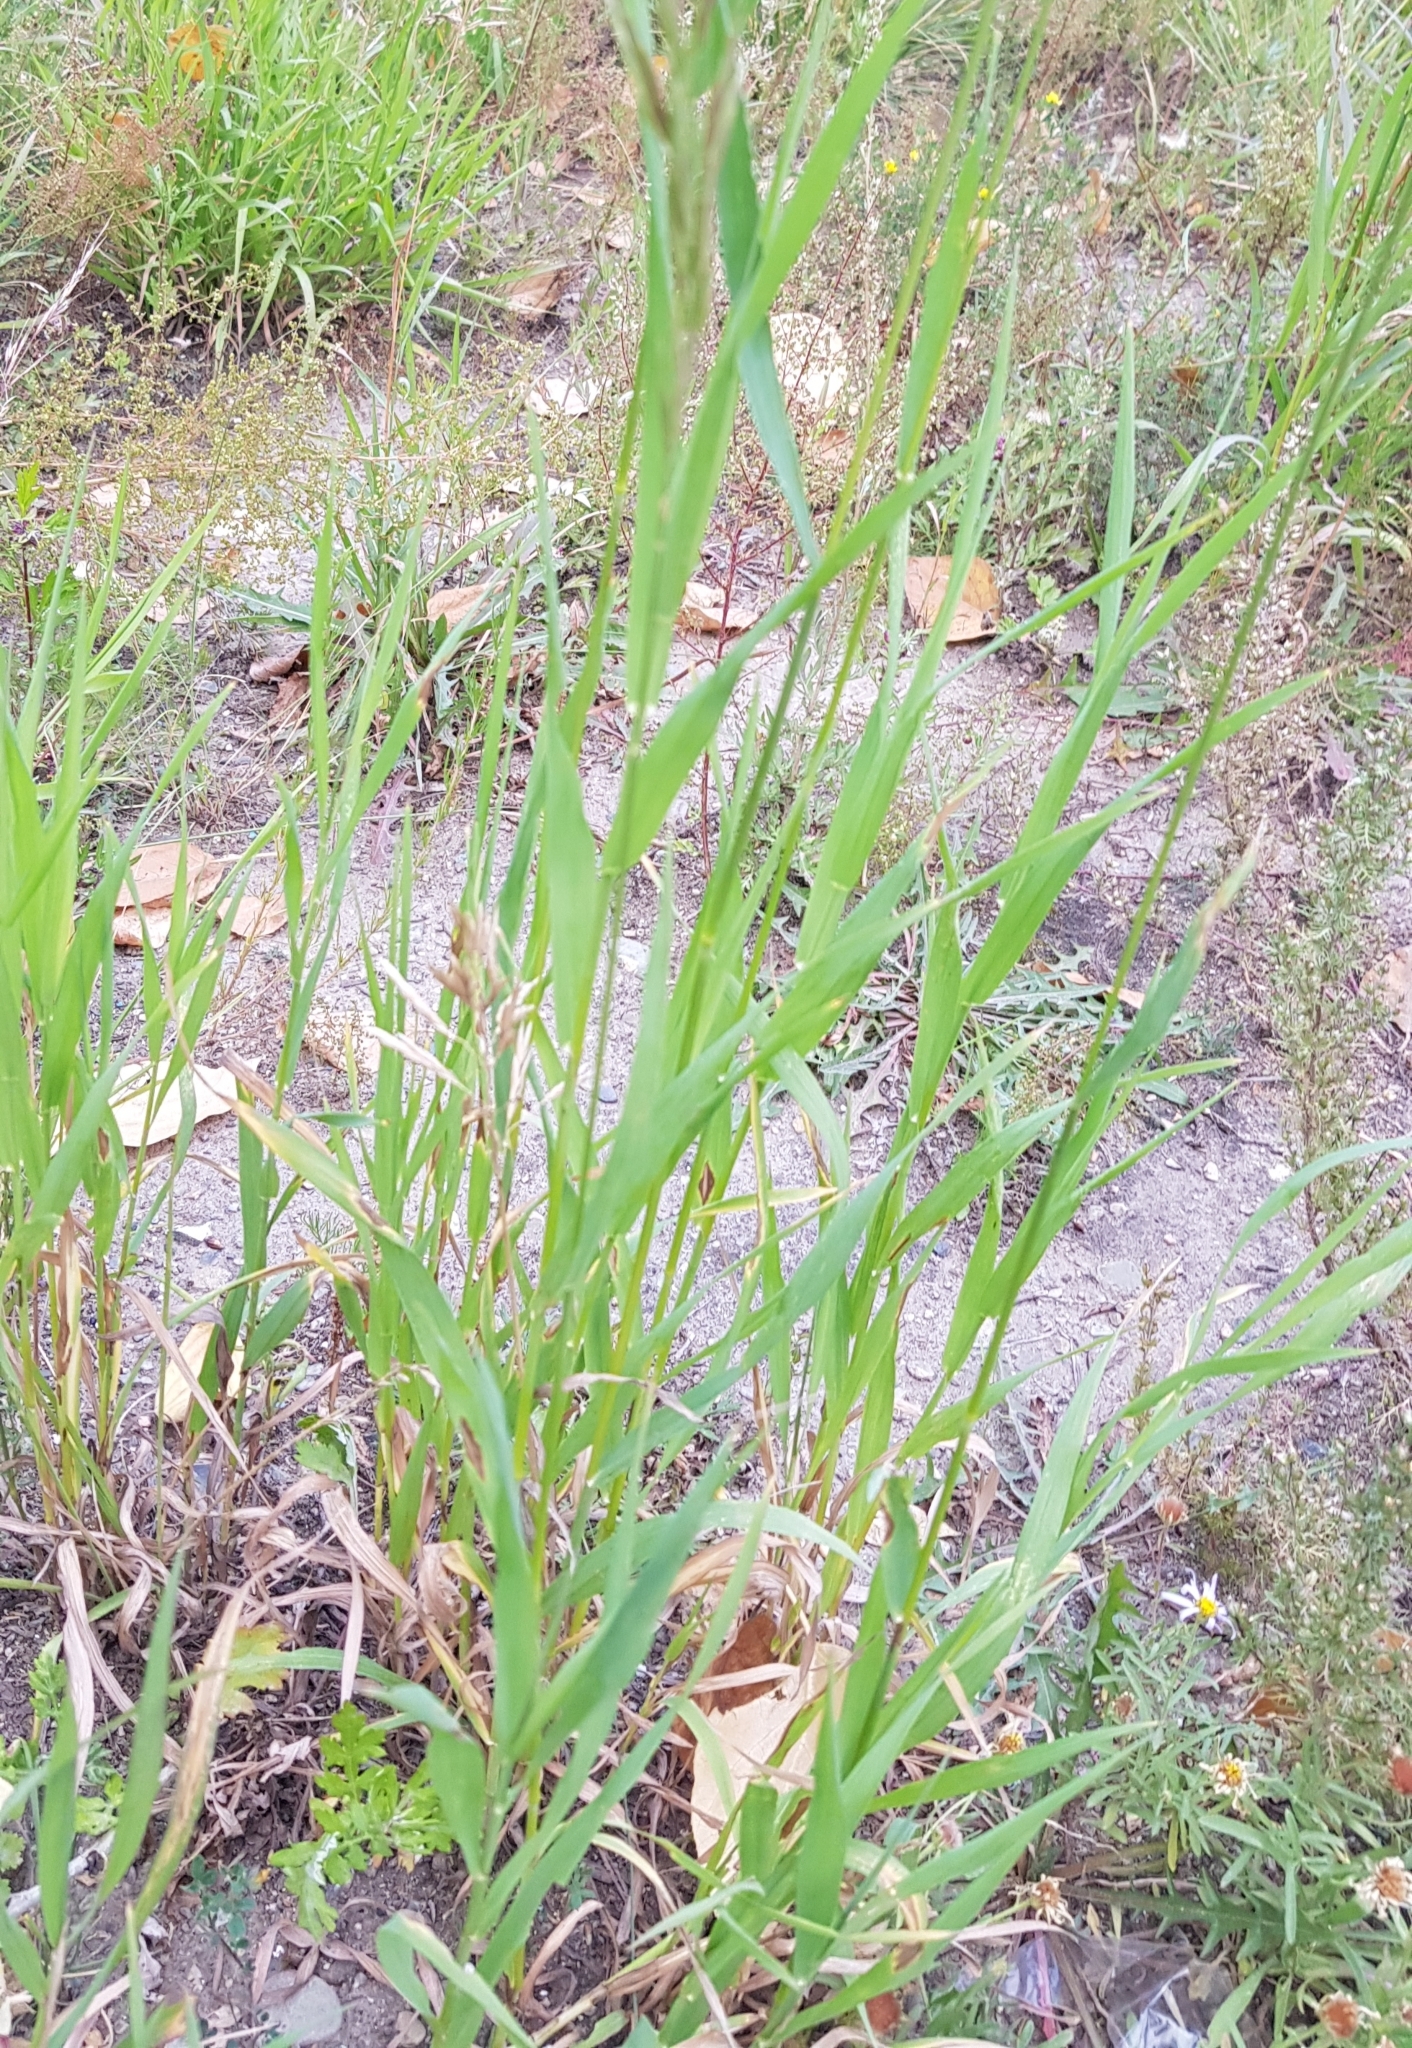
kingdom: Plantae
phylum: Tracheophyta
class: Liliopsida
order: Poales
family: Poaceae
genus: Setaria
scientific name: Setaria viridis
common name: Green bristlegrass
